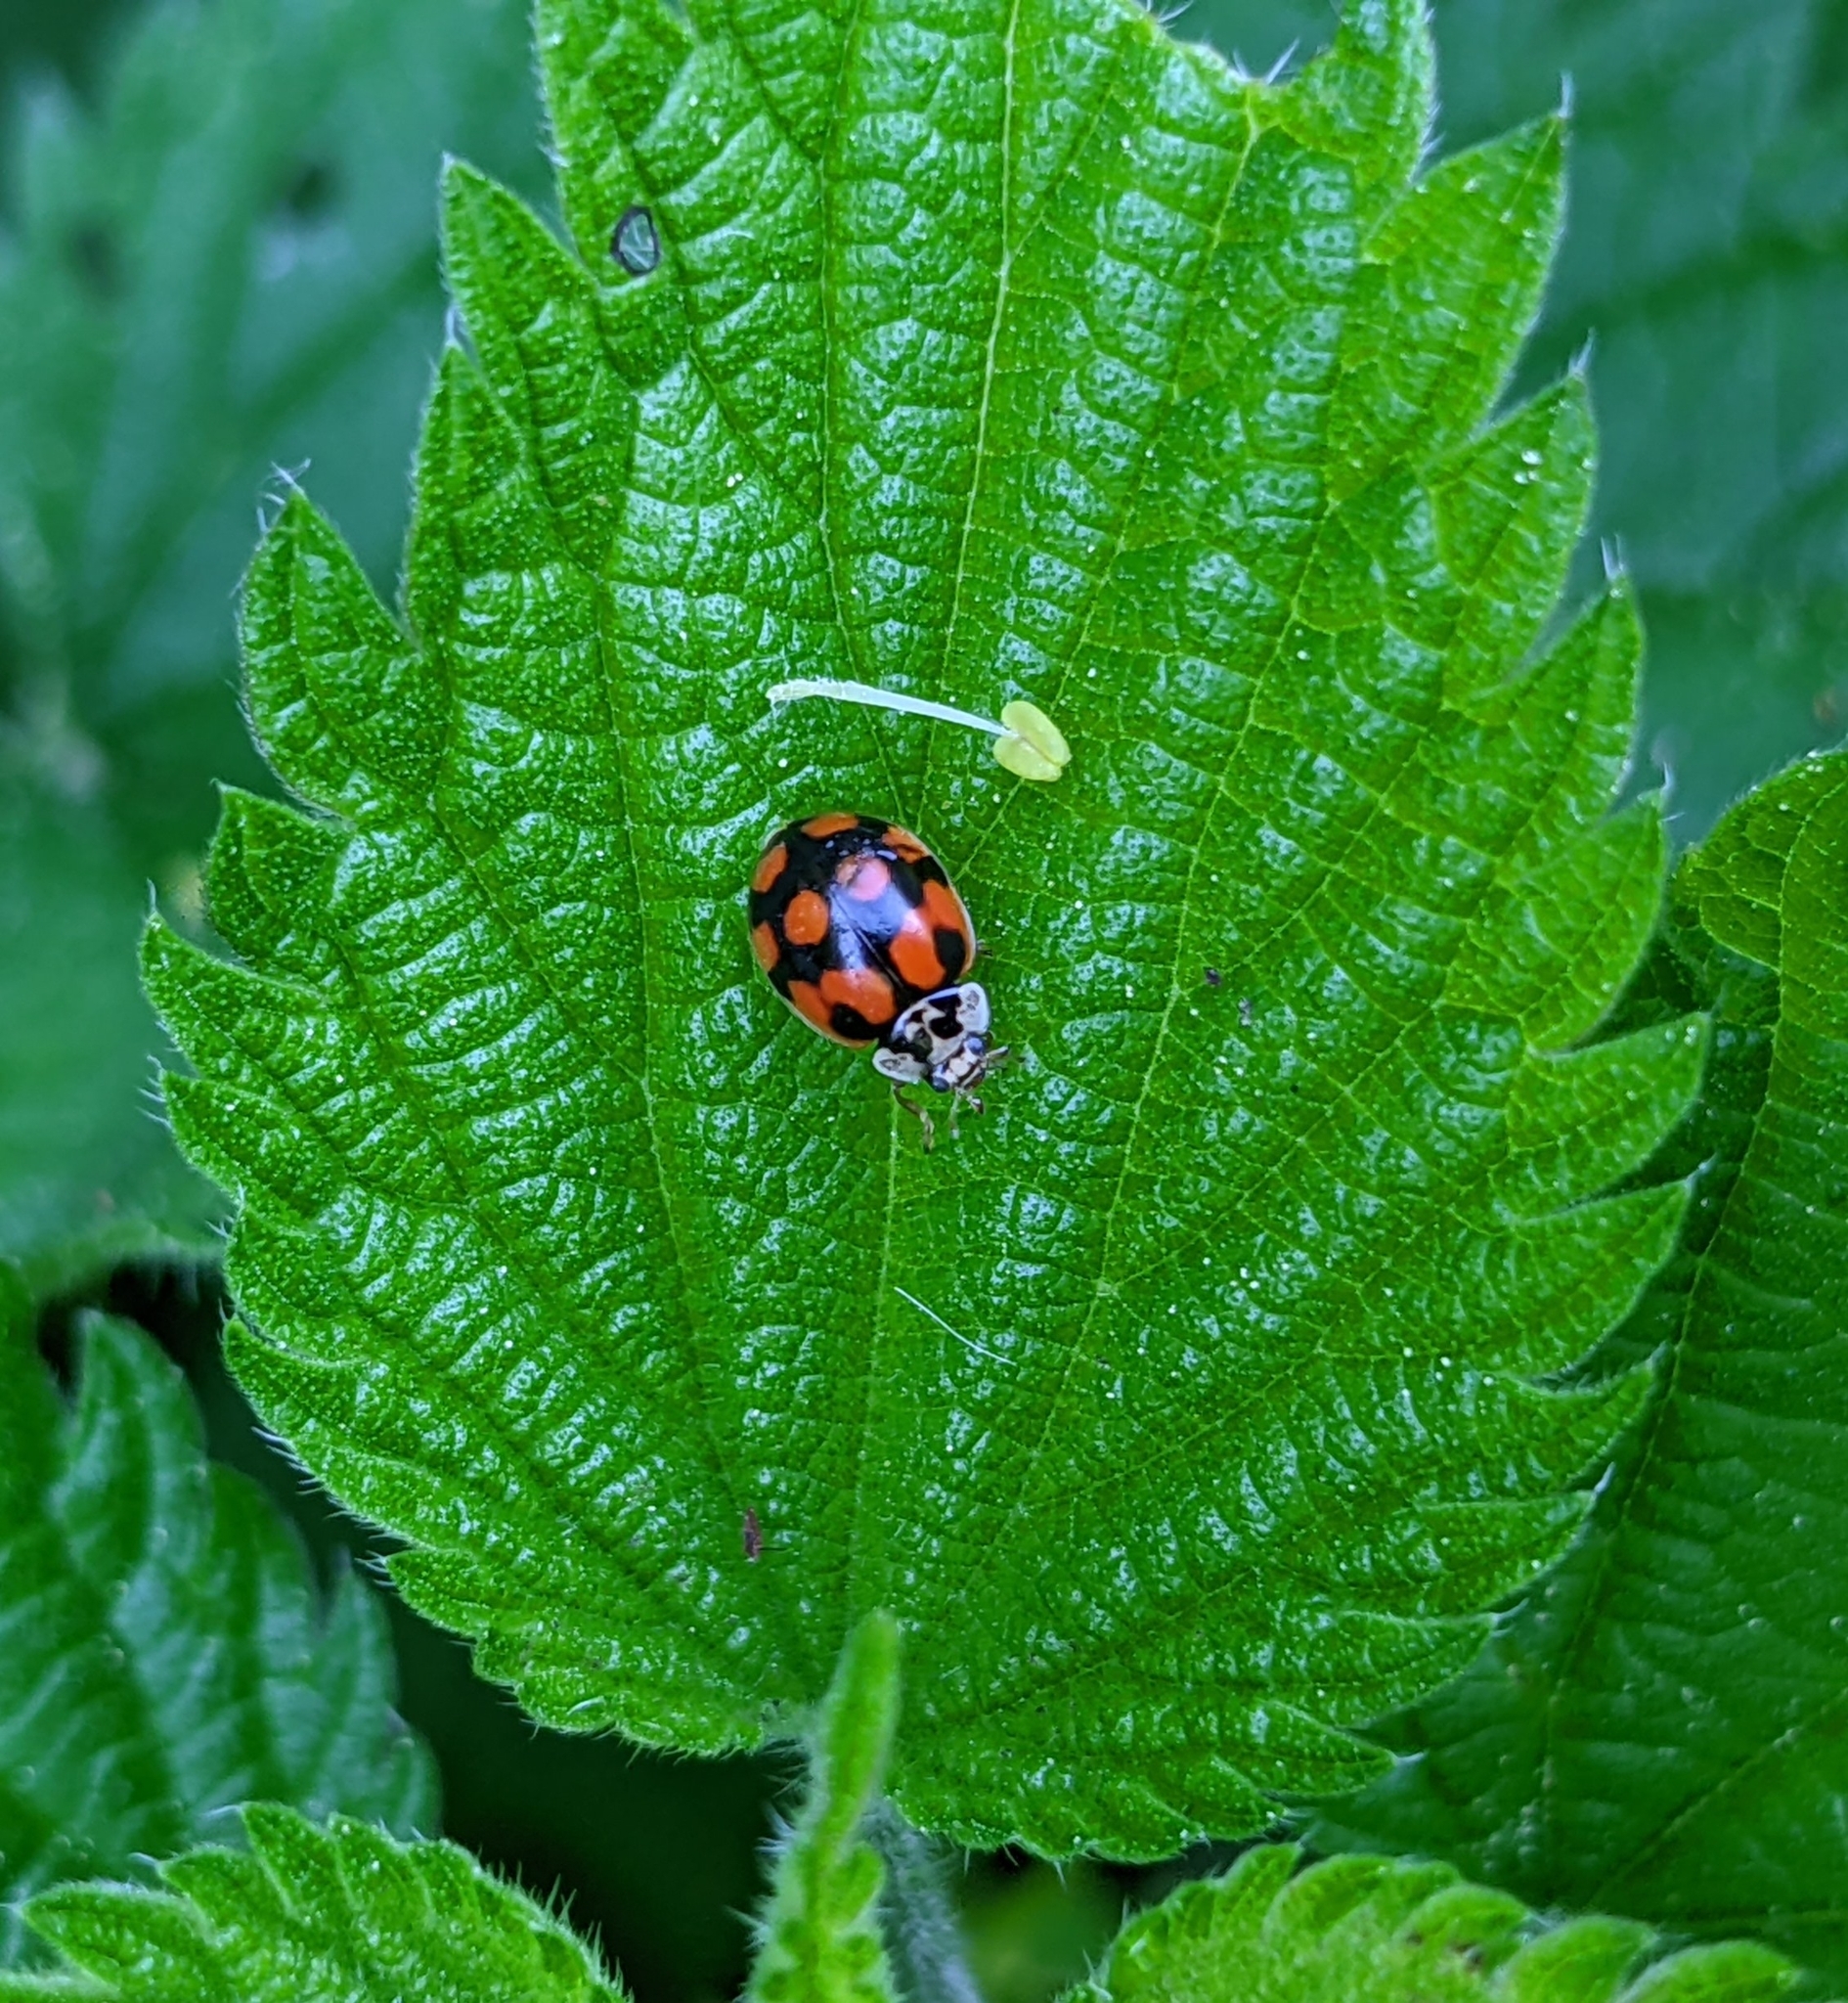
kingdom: Animalia
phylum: Arthropoda
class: Insecta
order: Coleoptera
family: Coccinellidae
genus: Adalia
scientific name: Adalia decempunctata
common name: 10-spot ladybird
